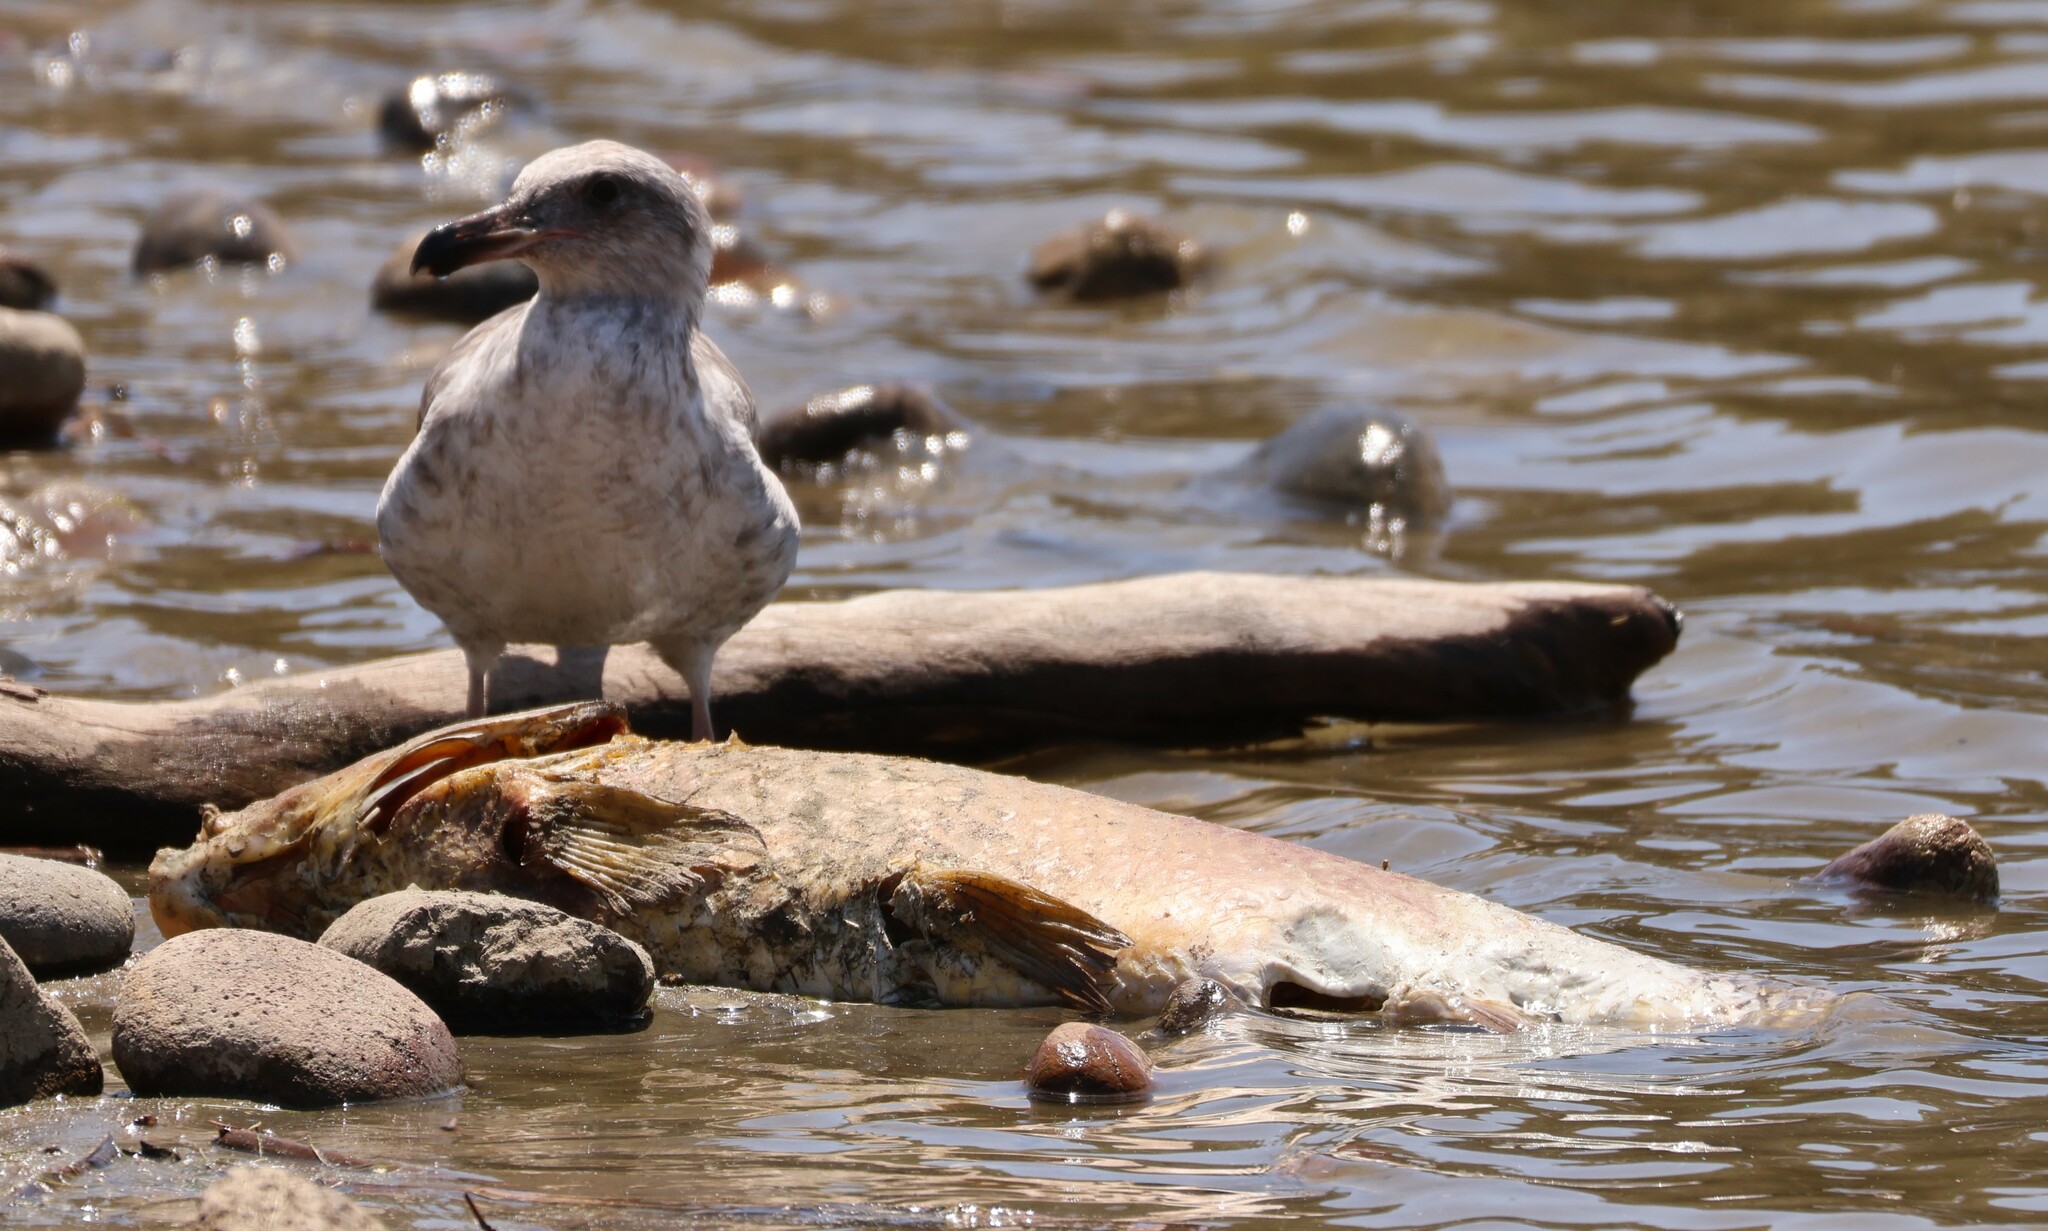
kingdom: Animalia
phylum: Chordata
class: Aves
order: Charadriiformes
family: Laridae
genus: Larus
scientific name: Larus occidentalis
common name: Western gull
